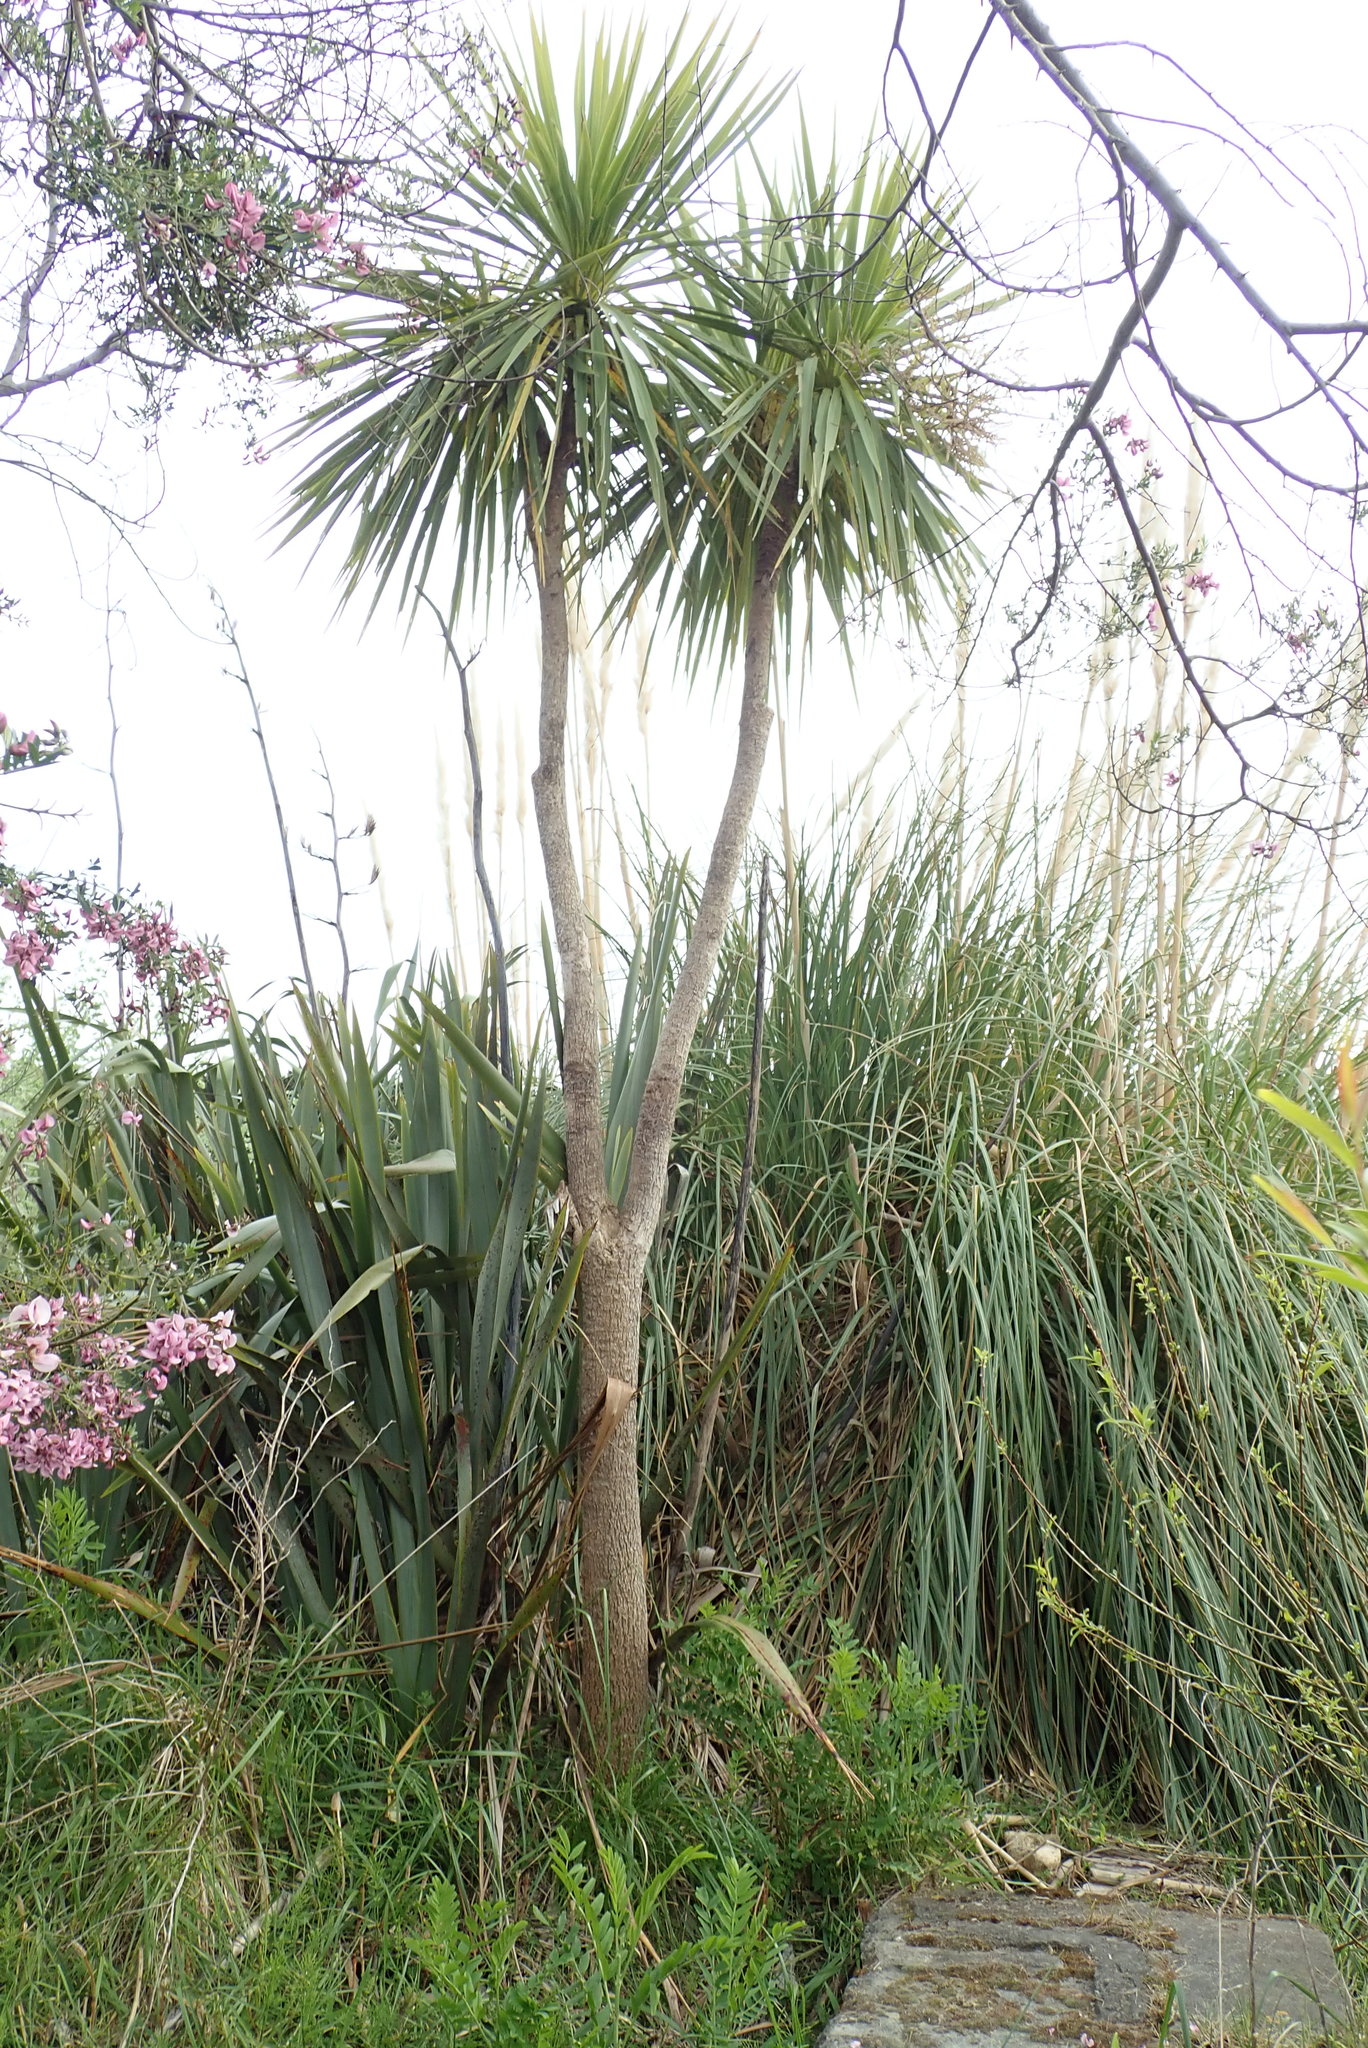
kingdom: Plantae
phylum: Tracheophyta
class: Liliopsida
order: Asparagales
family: Asparagaceae
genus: Cordyline
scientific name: Cordyline australis
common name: Cabbage-palm
